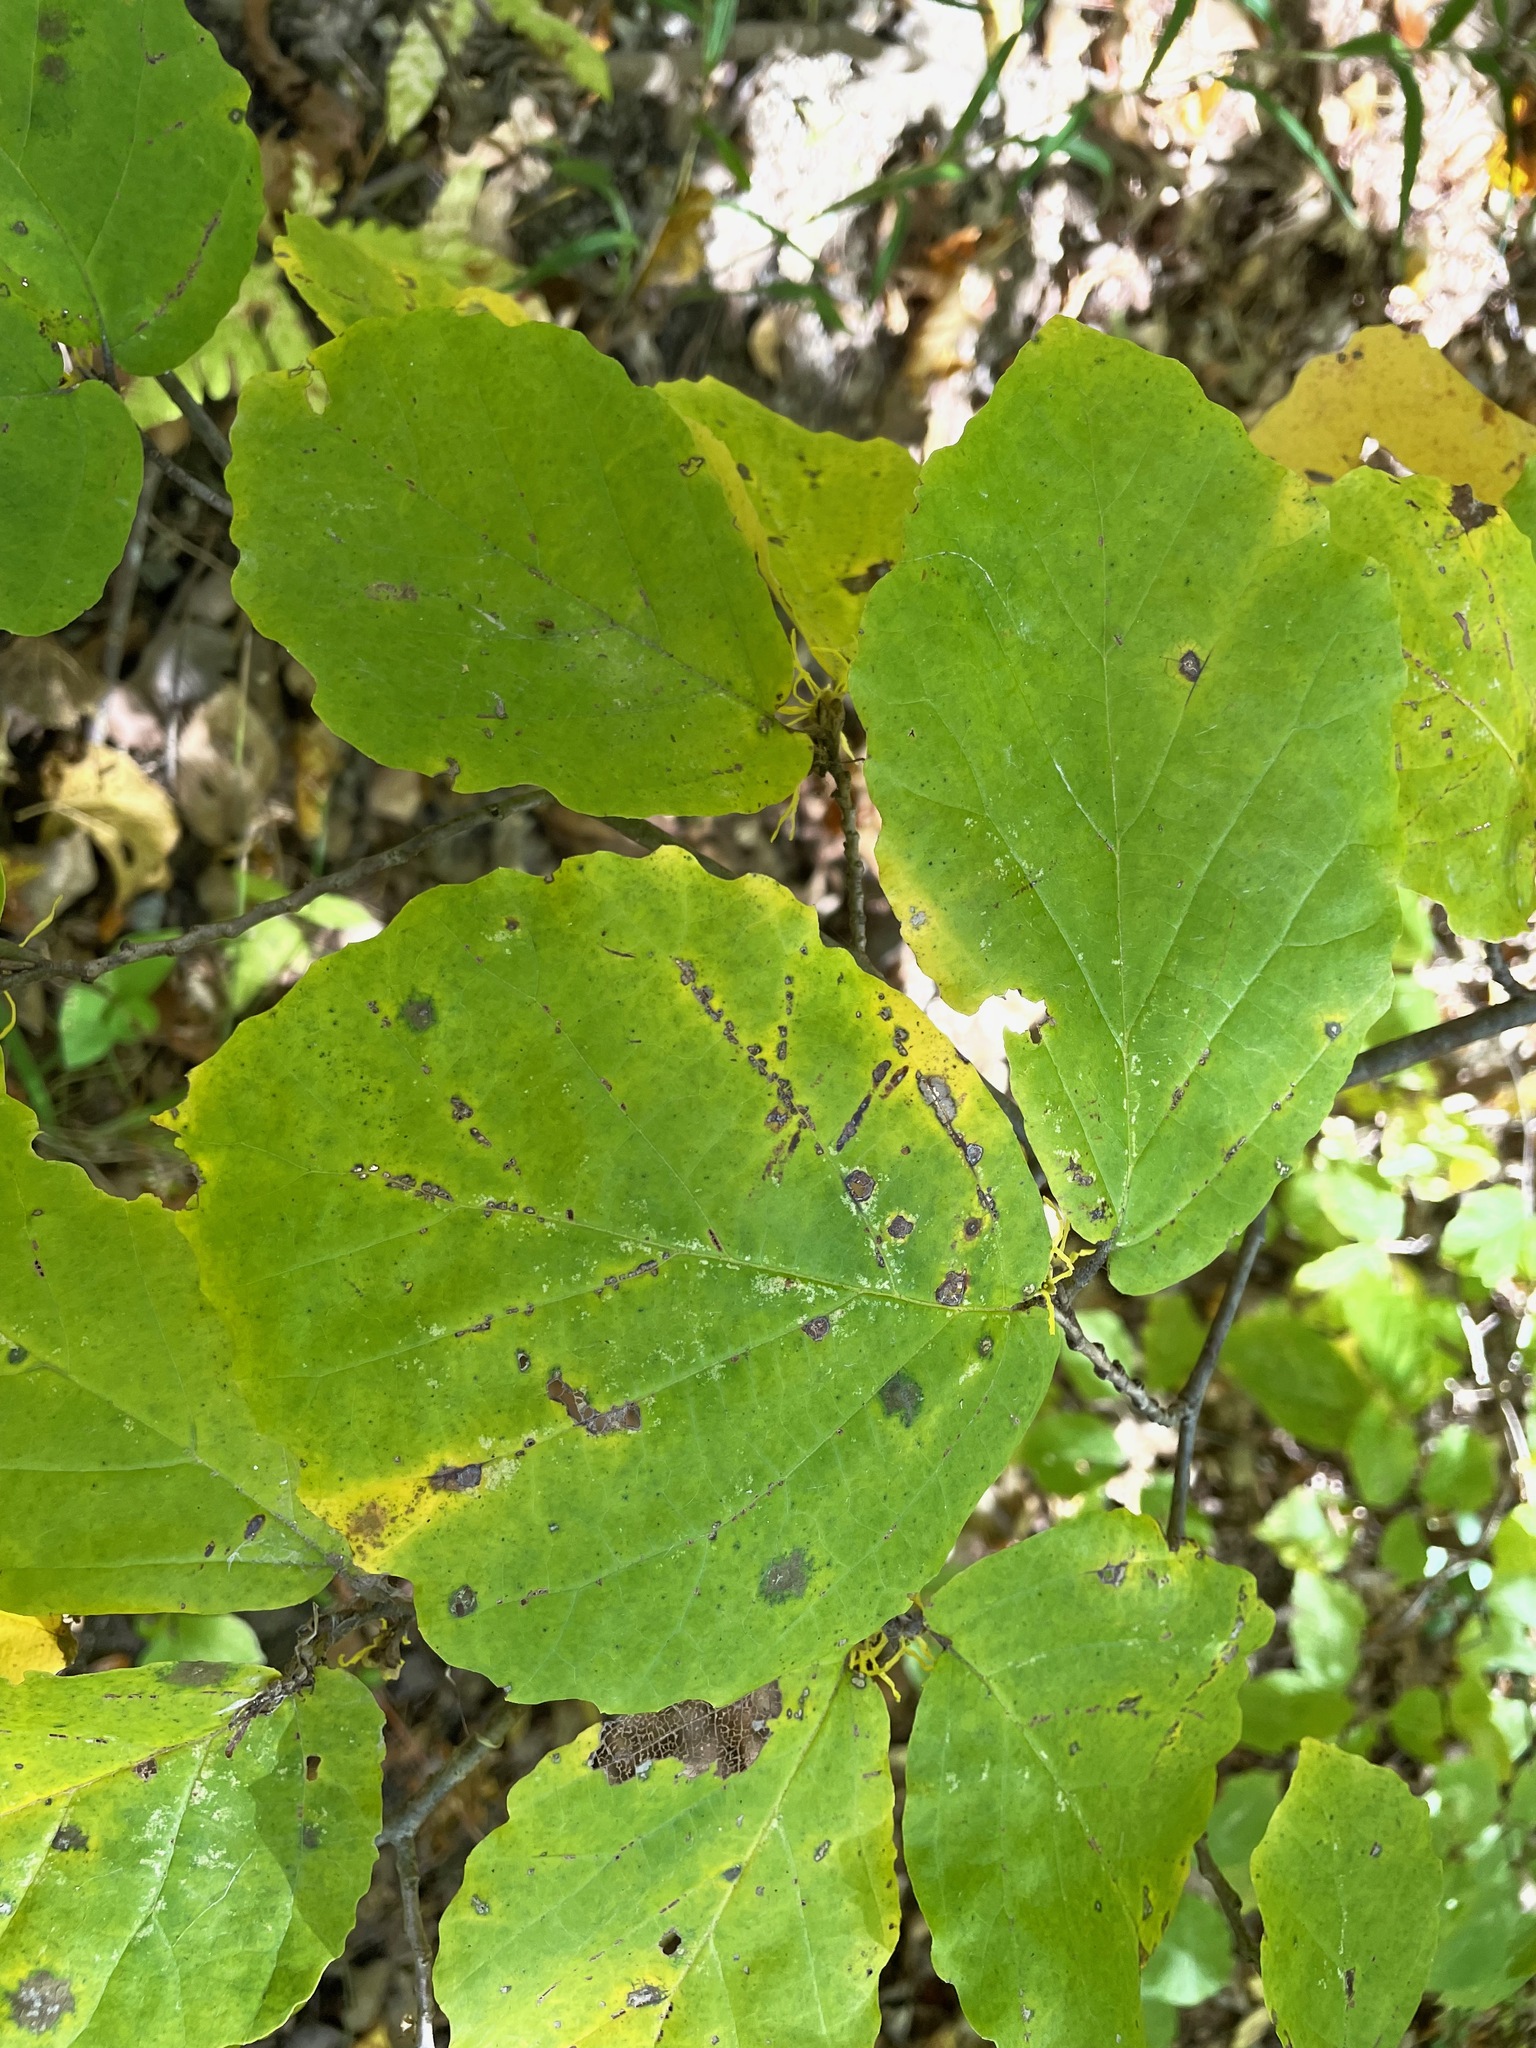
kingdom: Plantae
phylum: Tracheophyta
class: Magnoliopsida
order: Saxifragales
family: Hamamelidaceae
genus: Hamamelis
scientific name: Hamamelis virginiana
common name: Witch-hazel
